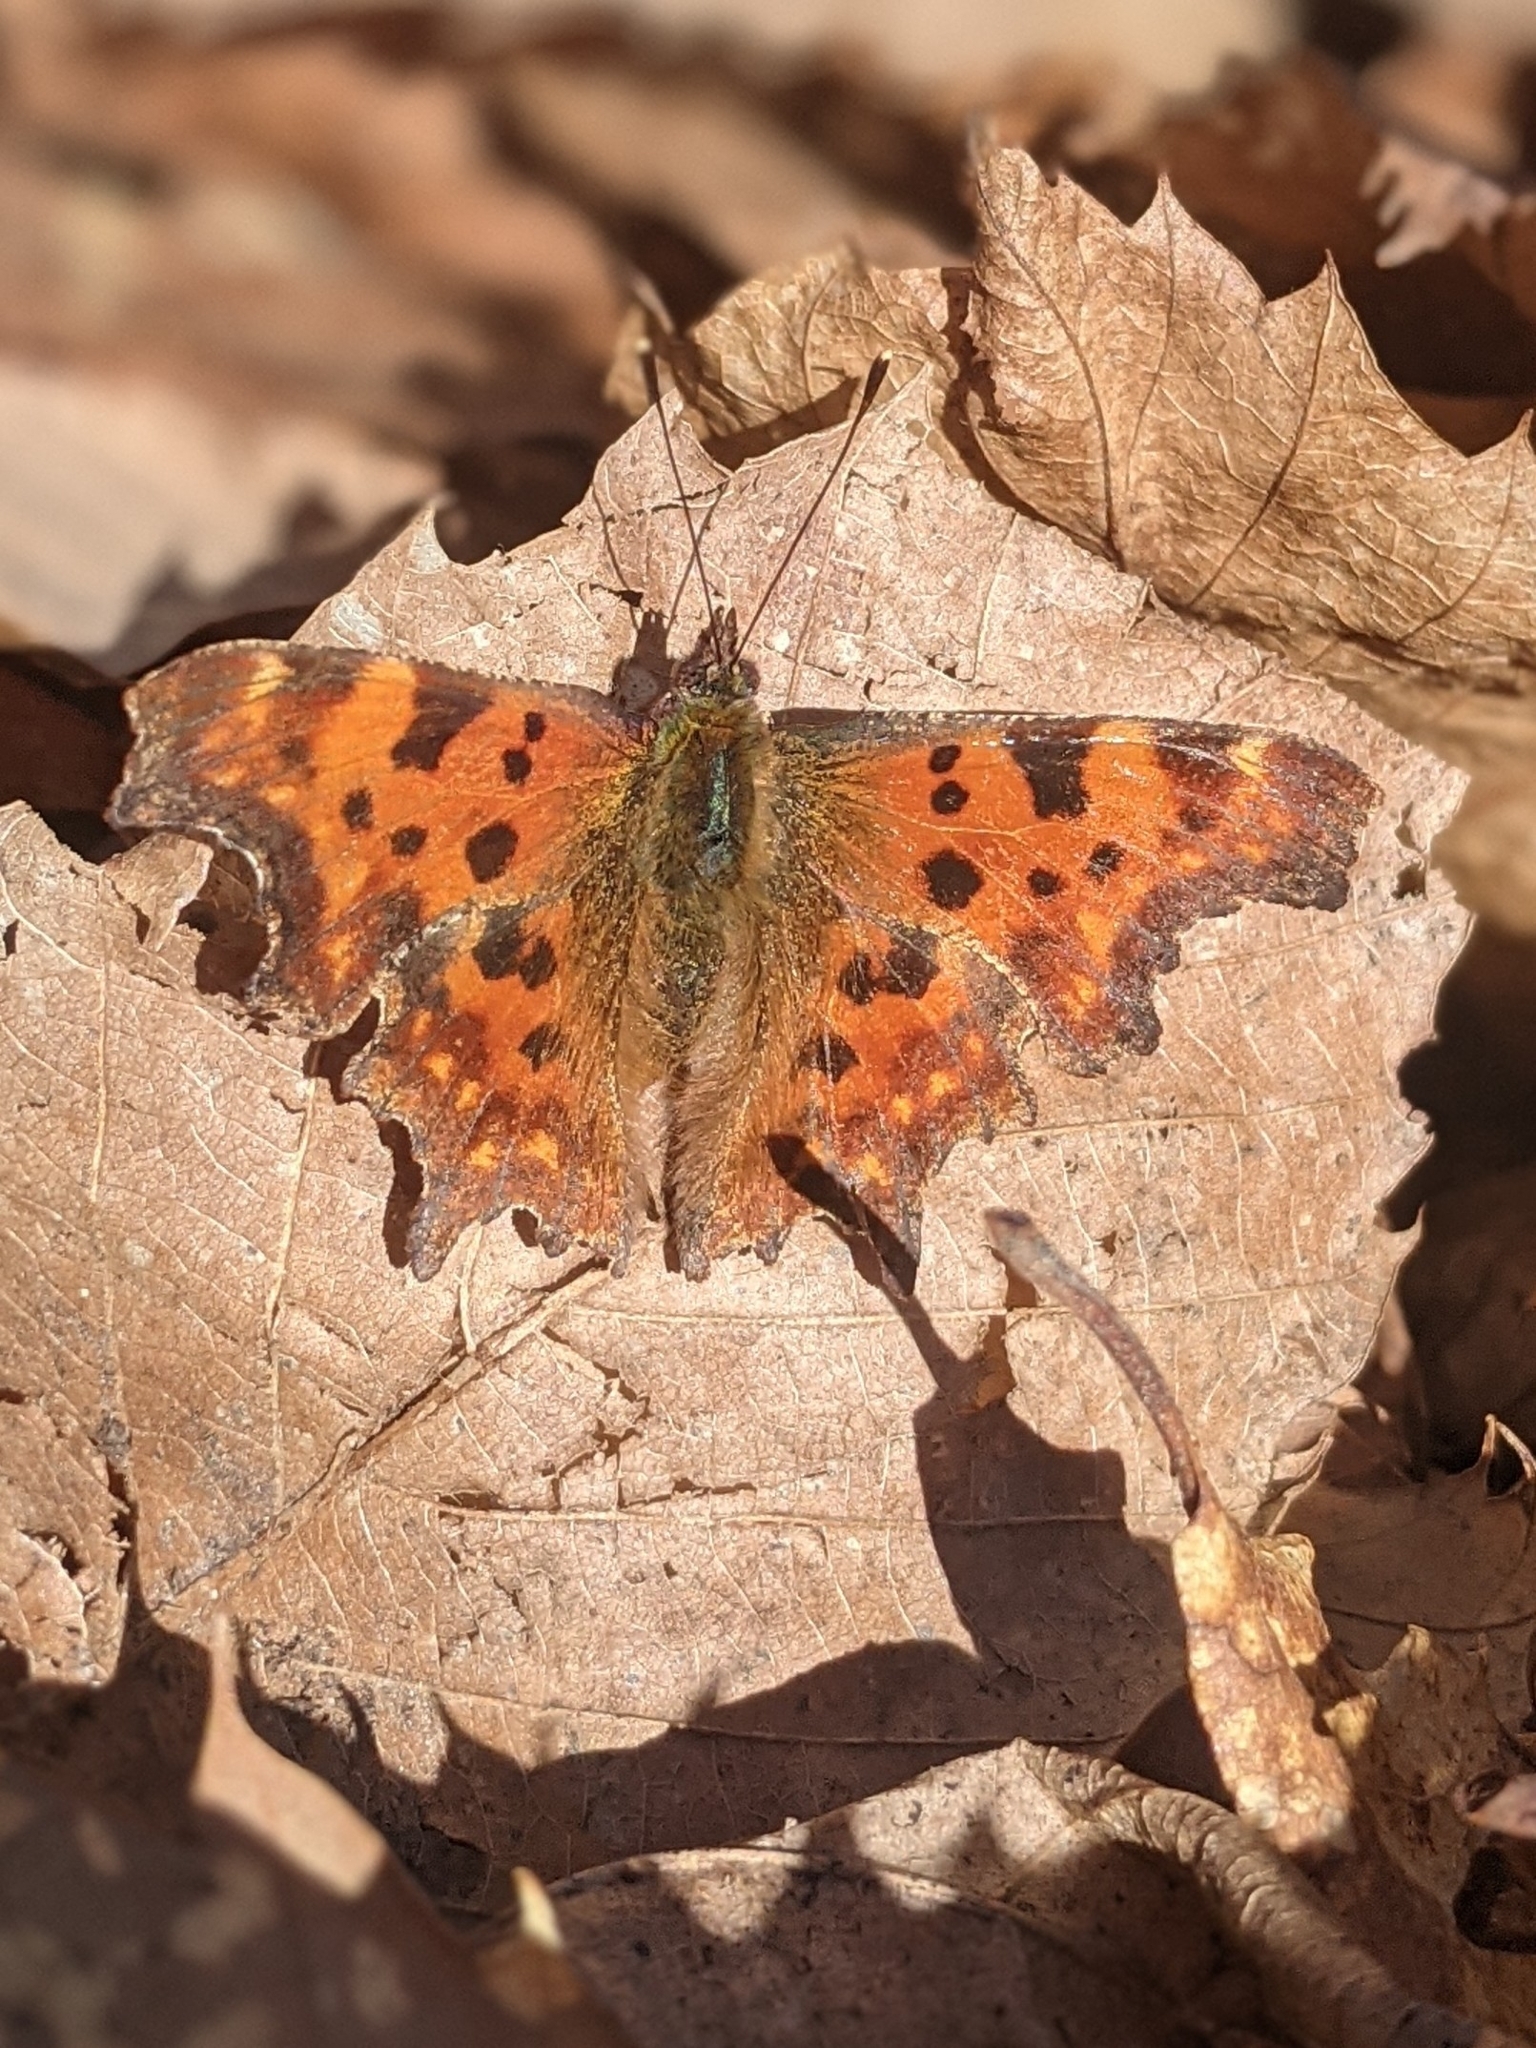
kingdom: Animalia
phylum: Arthropoda
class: Insecta
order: Lepidoptera
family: Nymphalidae
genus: Polygonia
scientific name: Polygonia c-album
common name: Comma
